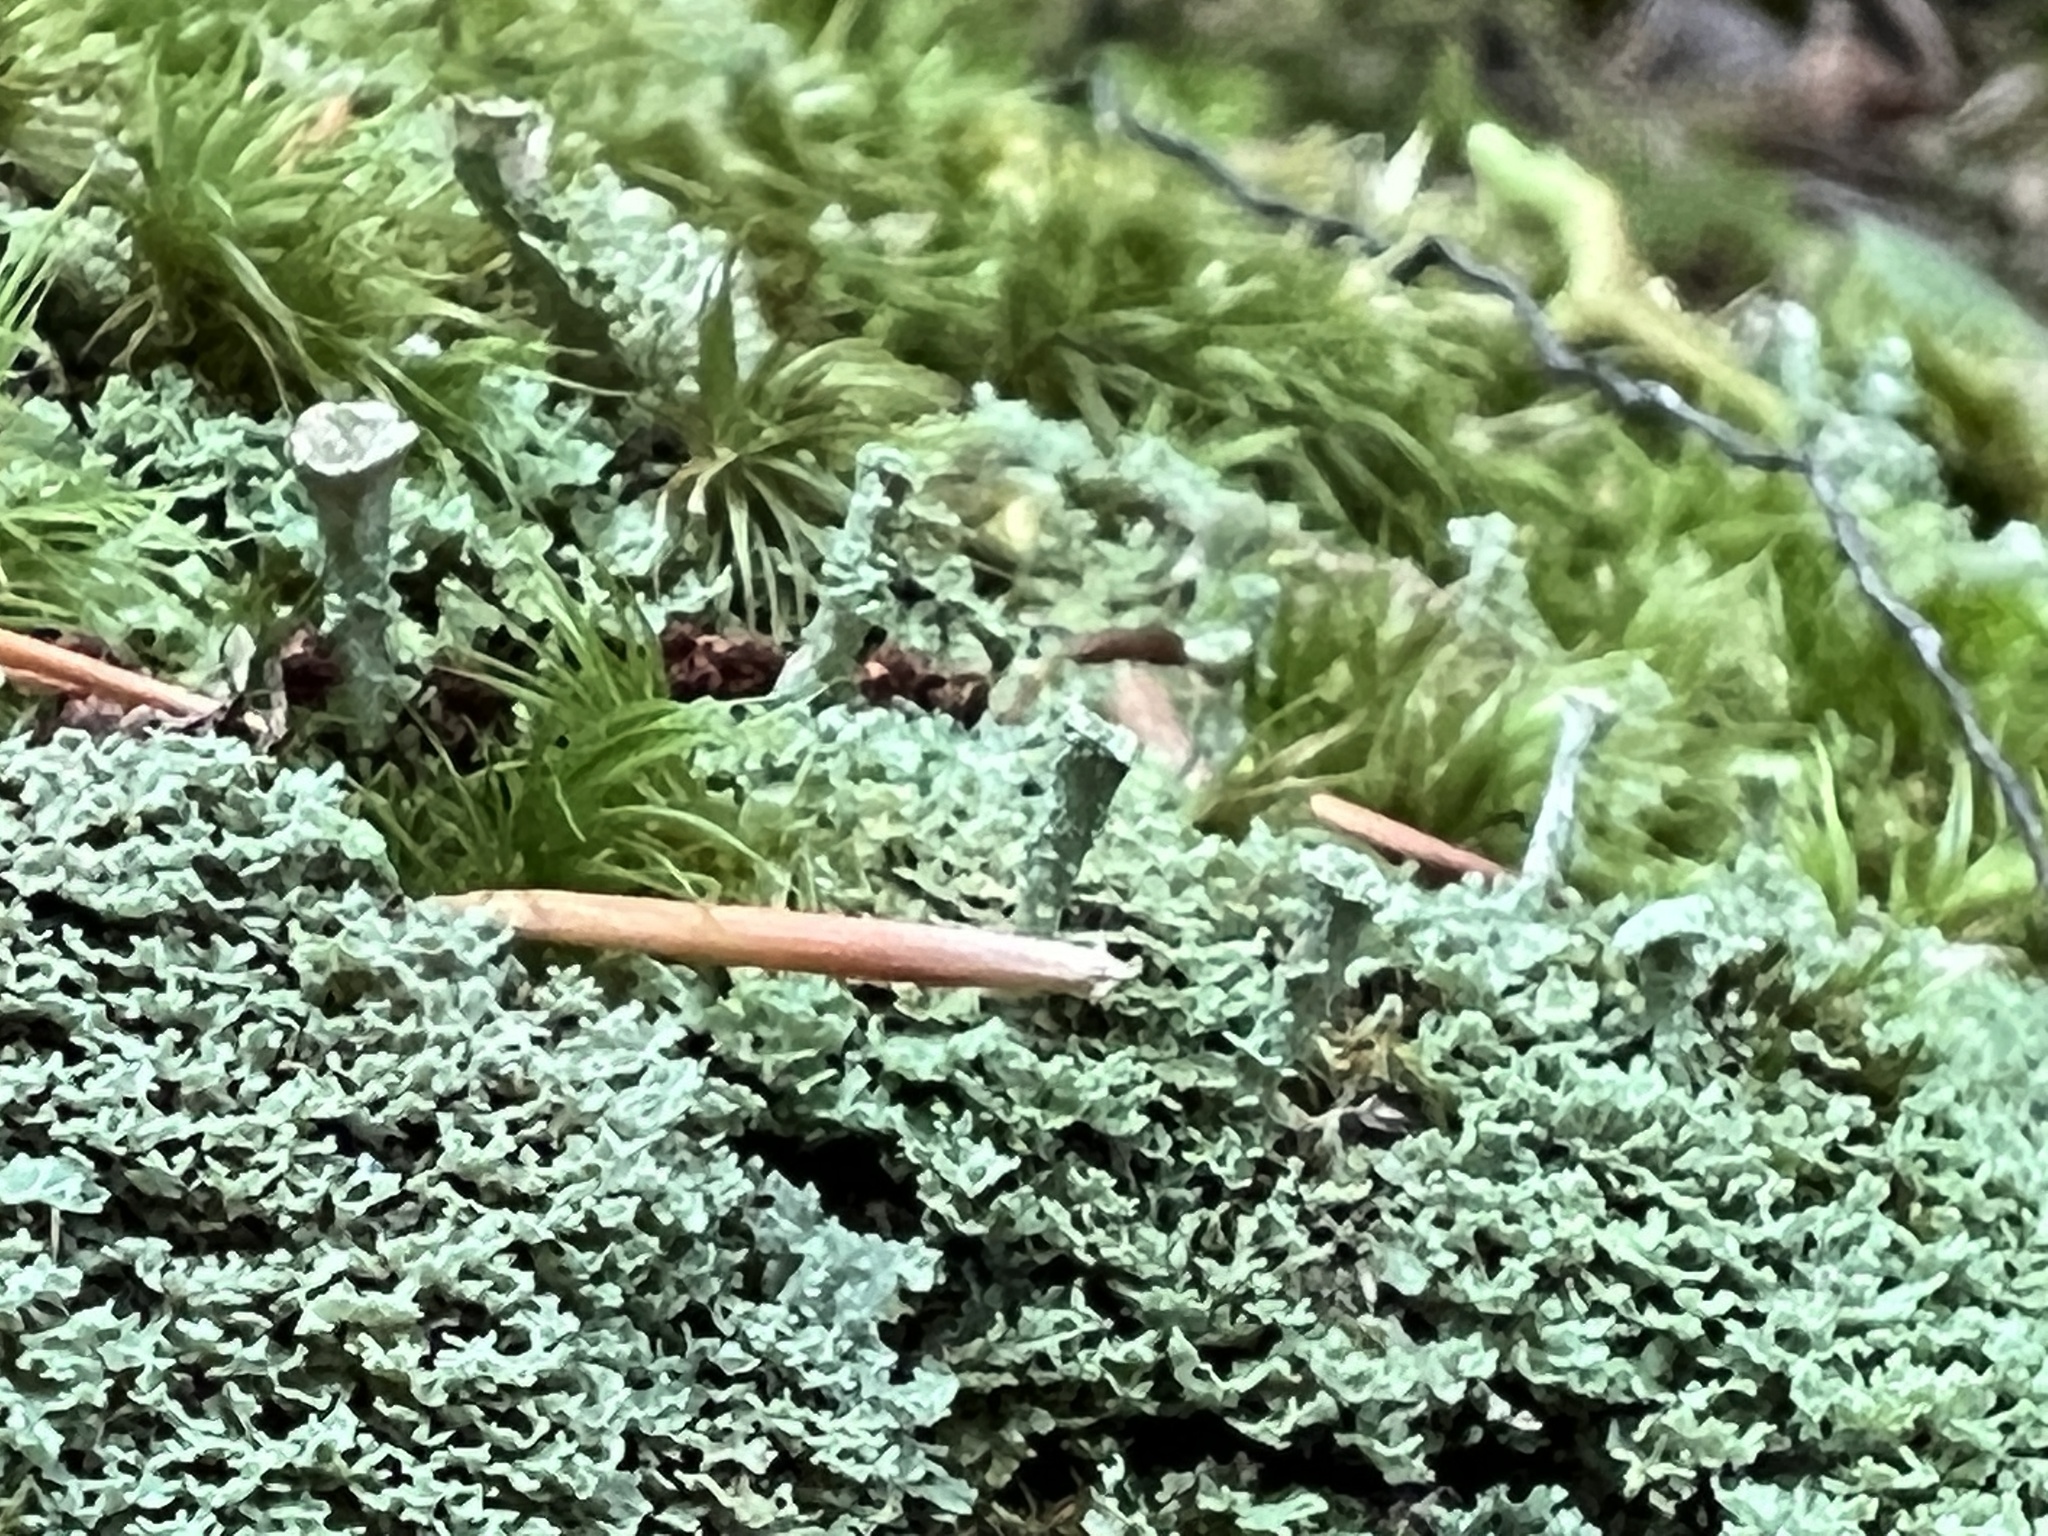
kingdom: Fungi
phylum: Ascomycota
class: Lecanoromycetes
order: Lecanorales
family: Cladoniaceae
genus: Cladonia
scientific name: Cladonia pyxidata
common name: Pebbled pixie cup
